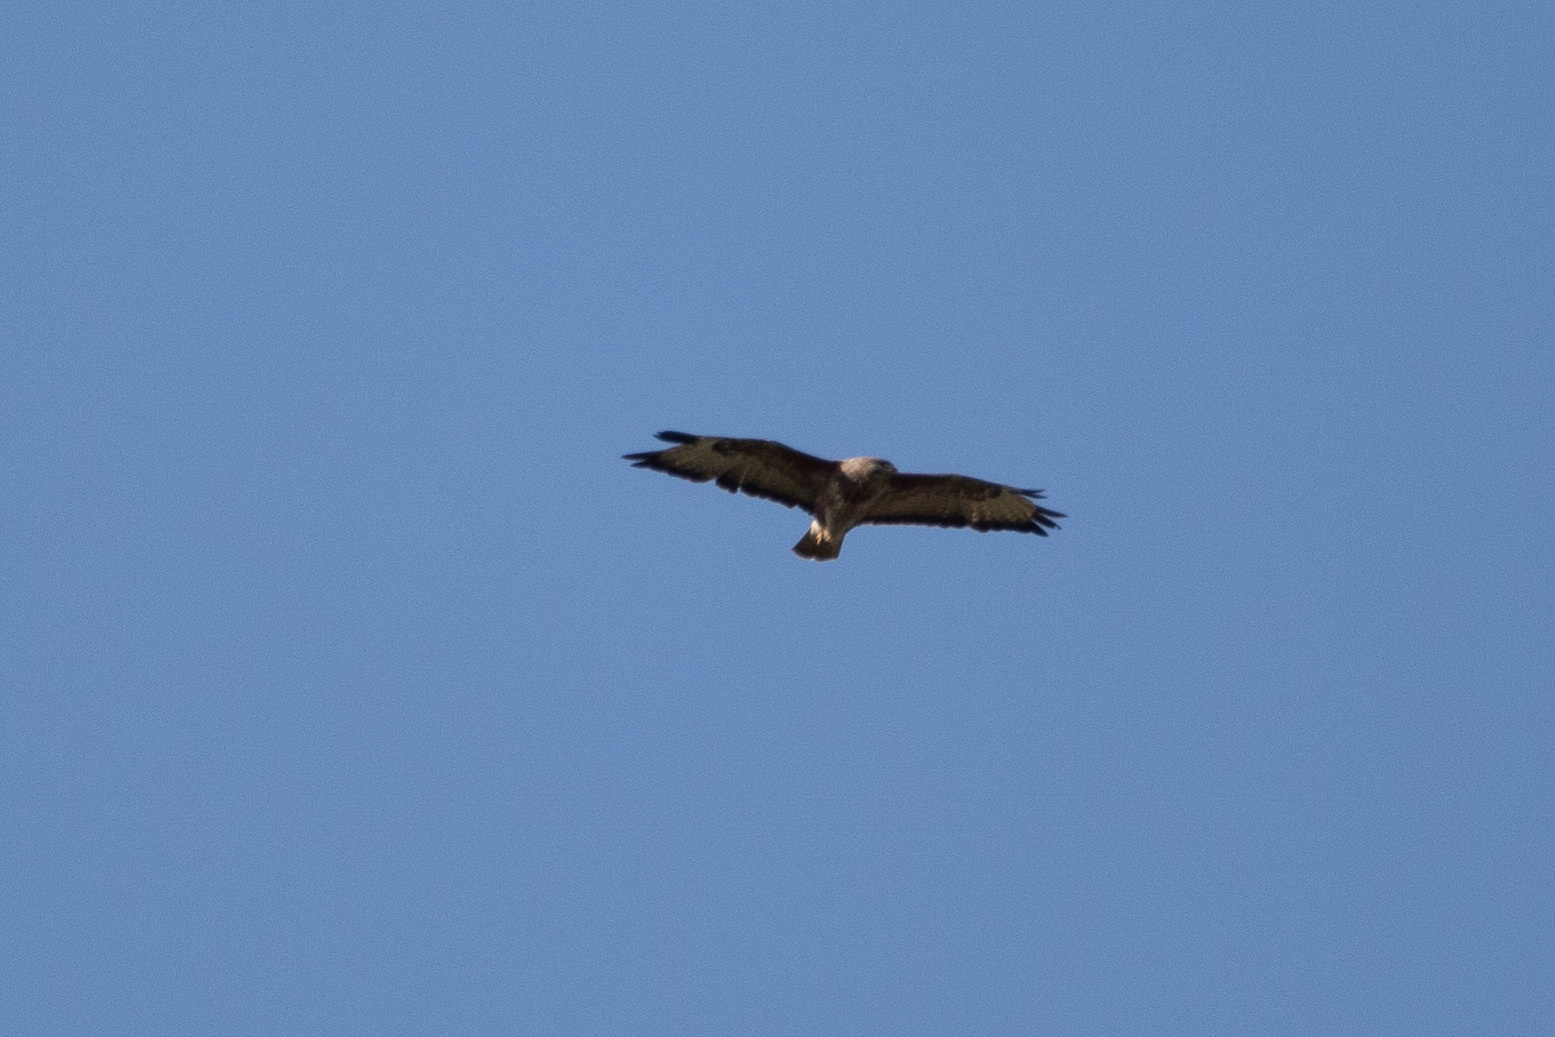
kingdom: Animalia
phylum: Chordata
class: Aves
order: Accipitriformes
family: Accipitridae
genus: Buteo
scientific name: Buteo buteo
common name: Common buzzard
